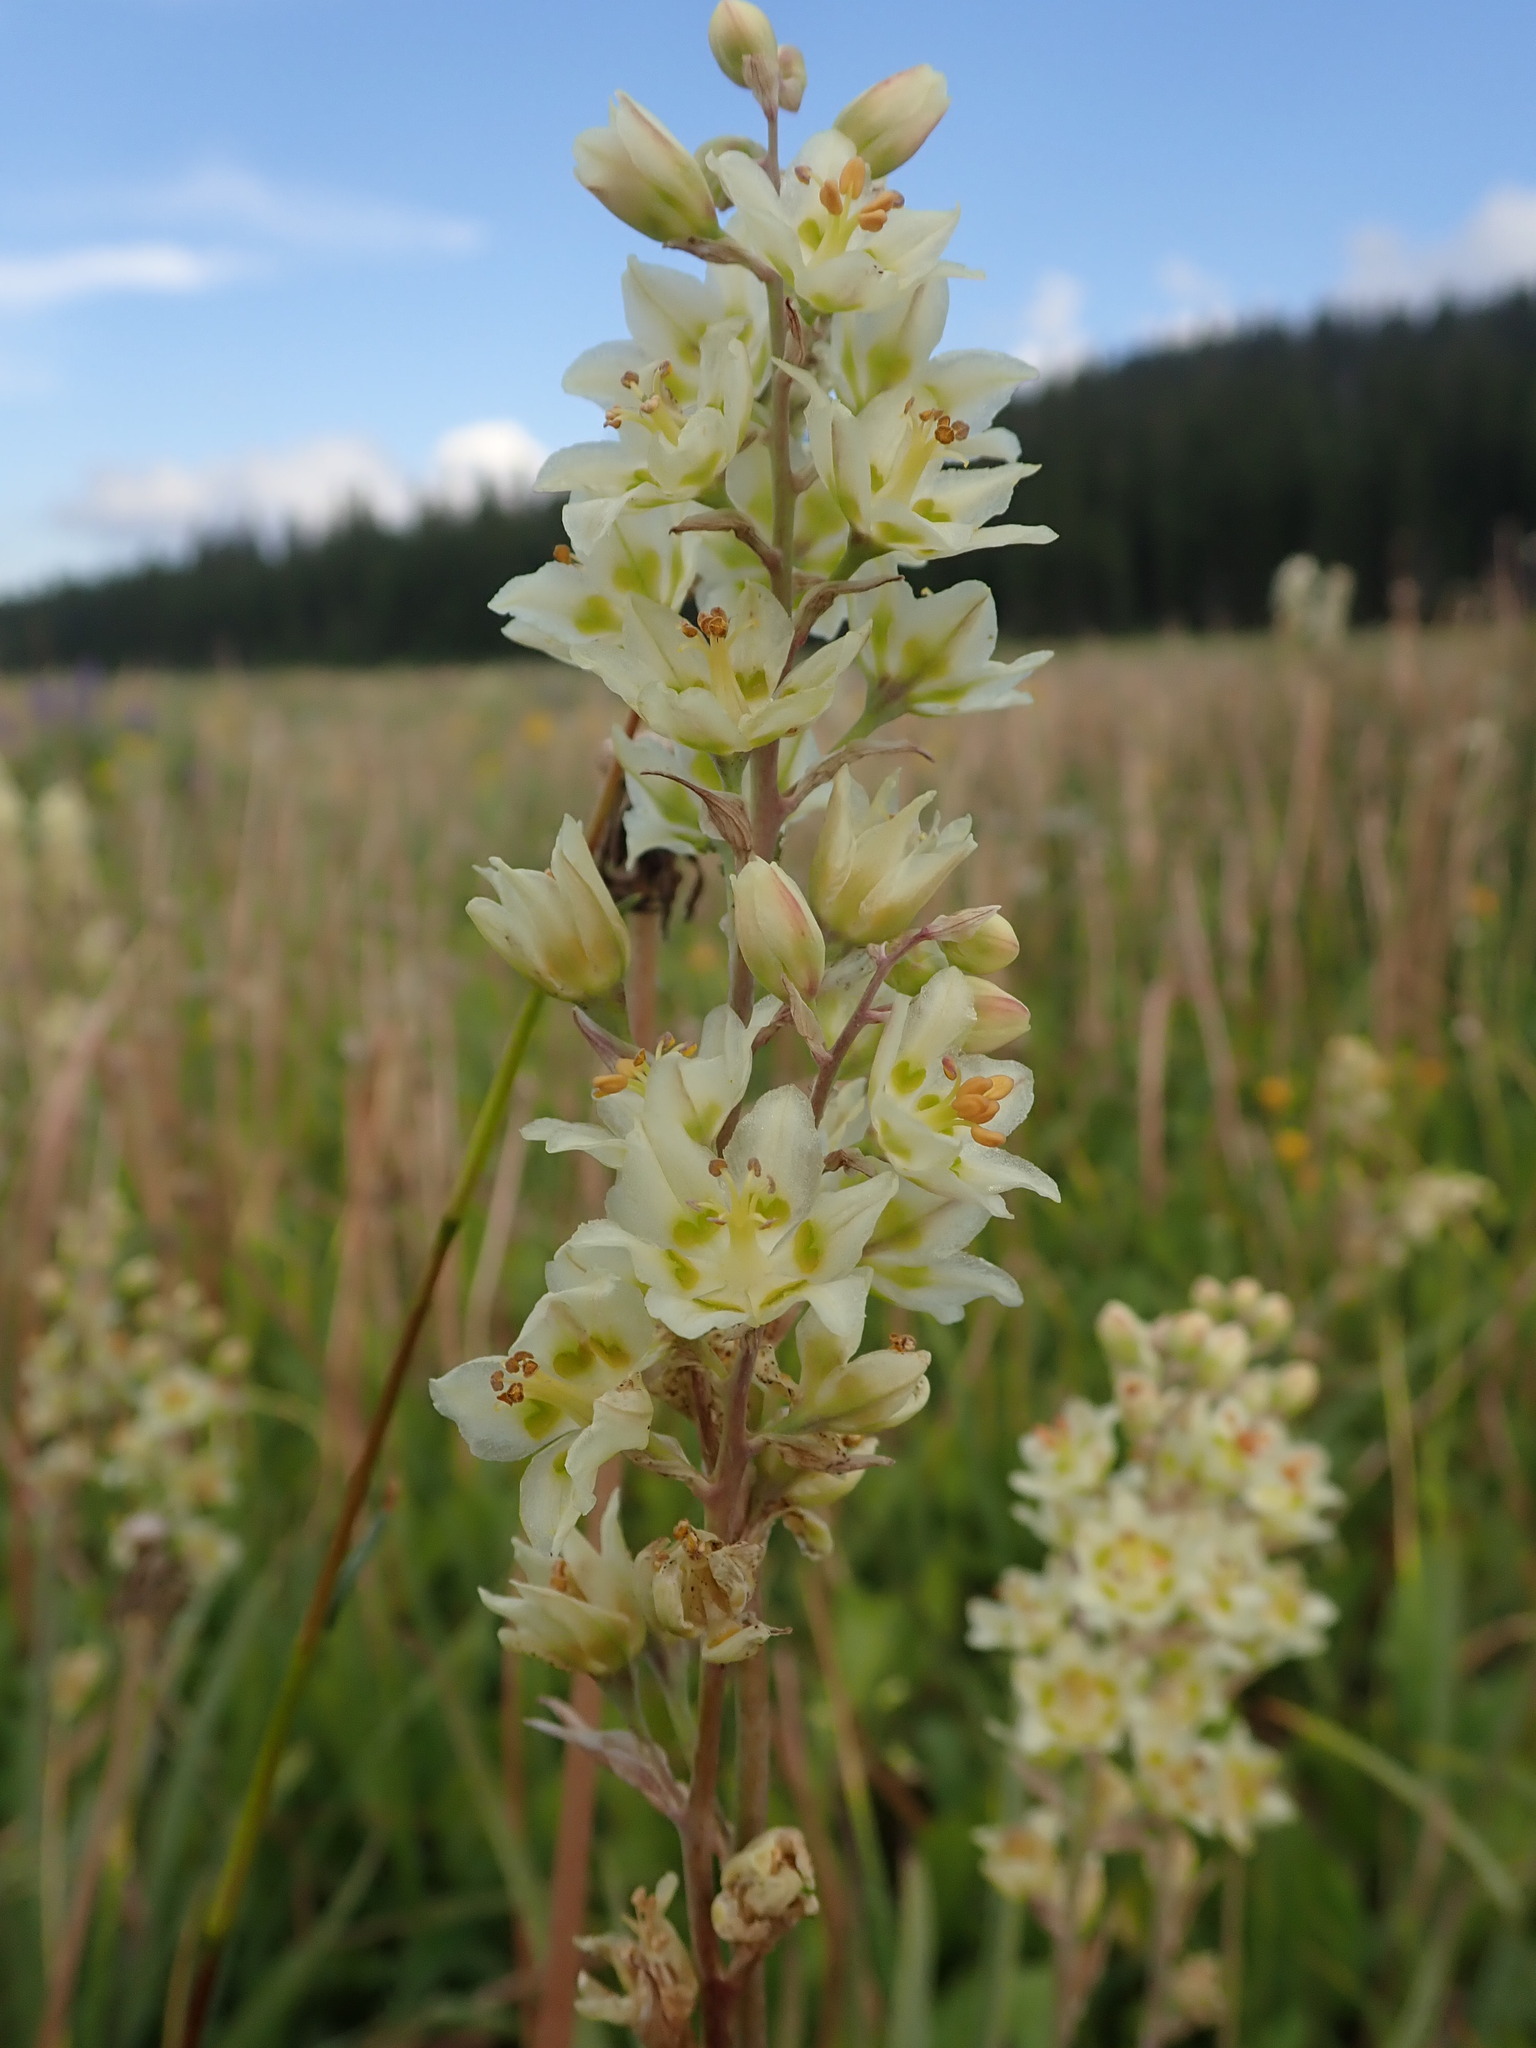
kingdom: Plantae
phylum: Tracheophyta
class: Liliopsida
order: Liliales
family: Melanthiaceae
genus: Anticlea
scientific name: Anticlea elegans
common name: Mountain death camas
